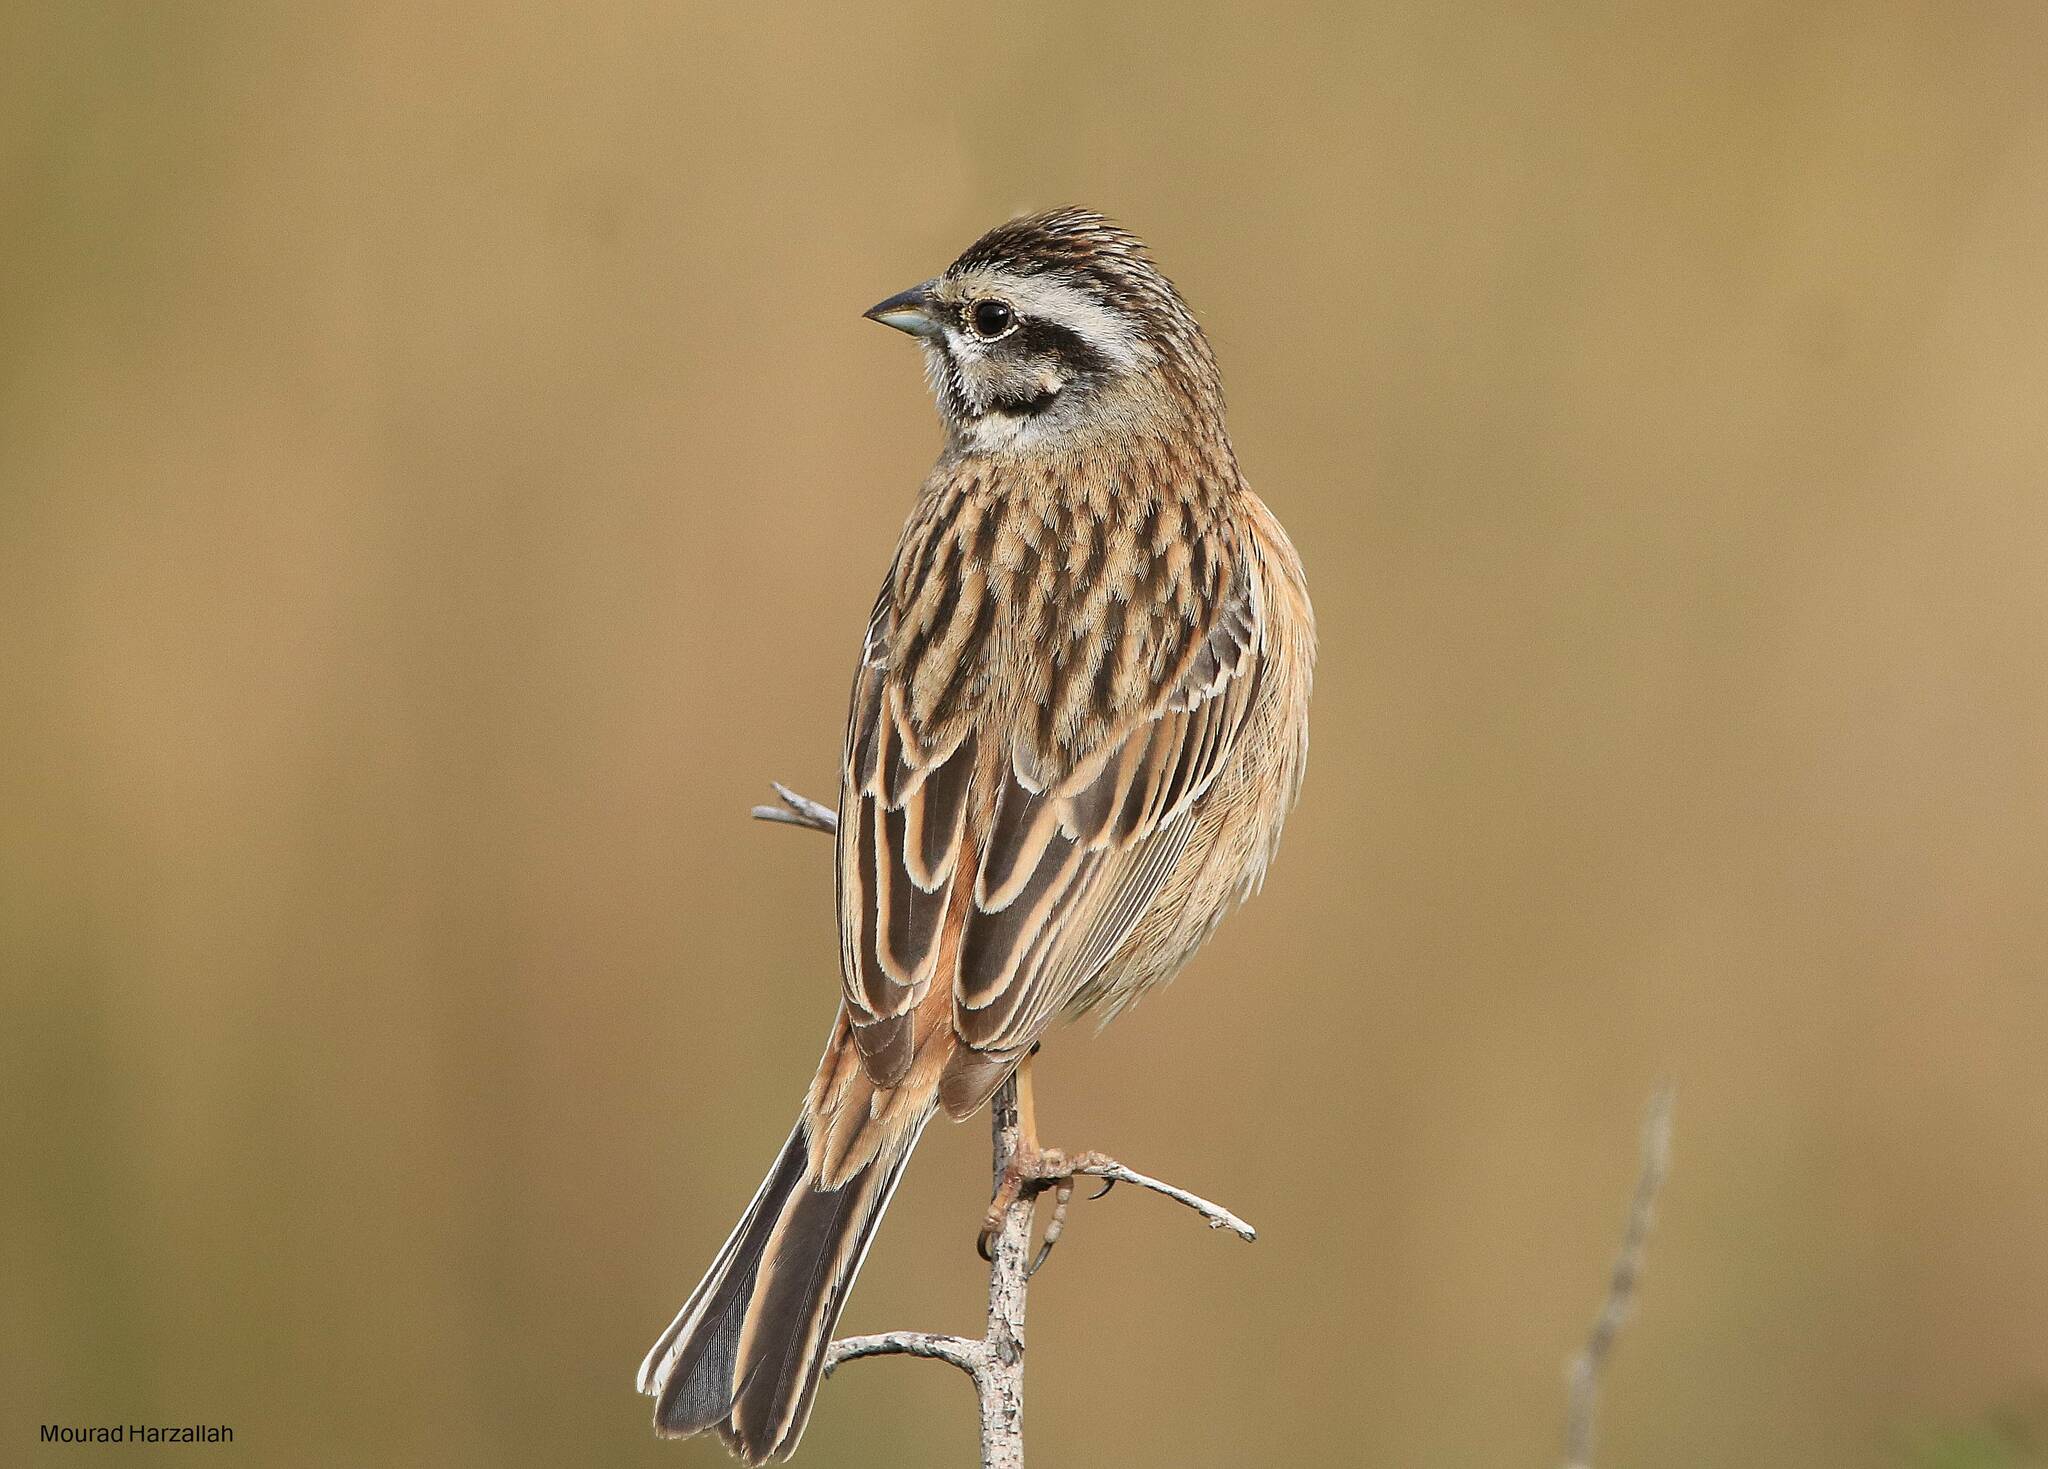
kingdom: Animalia
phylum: Chordata
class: Aves
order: Passeriformes
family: Emberizidae
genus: Emberiza
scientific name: Emberiza cia
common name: Rock bunting
